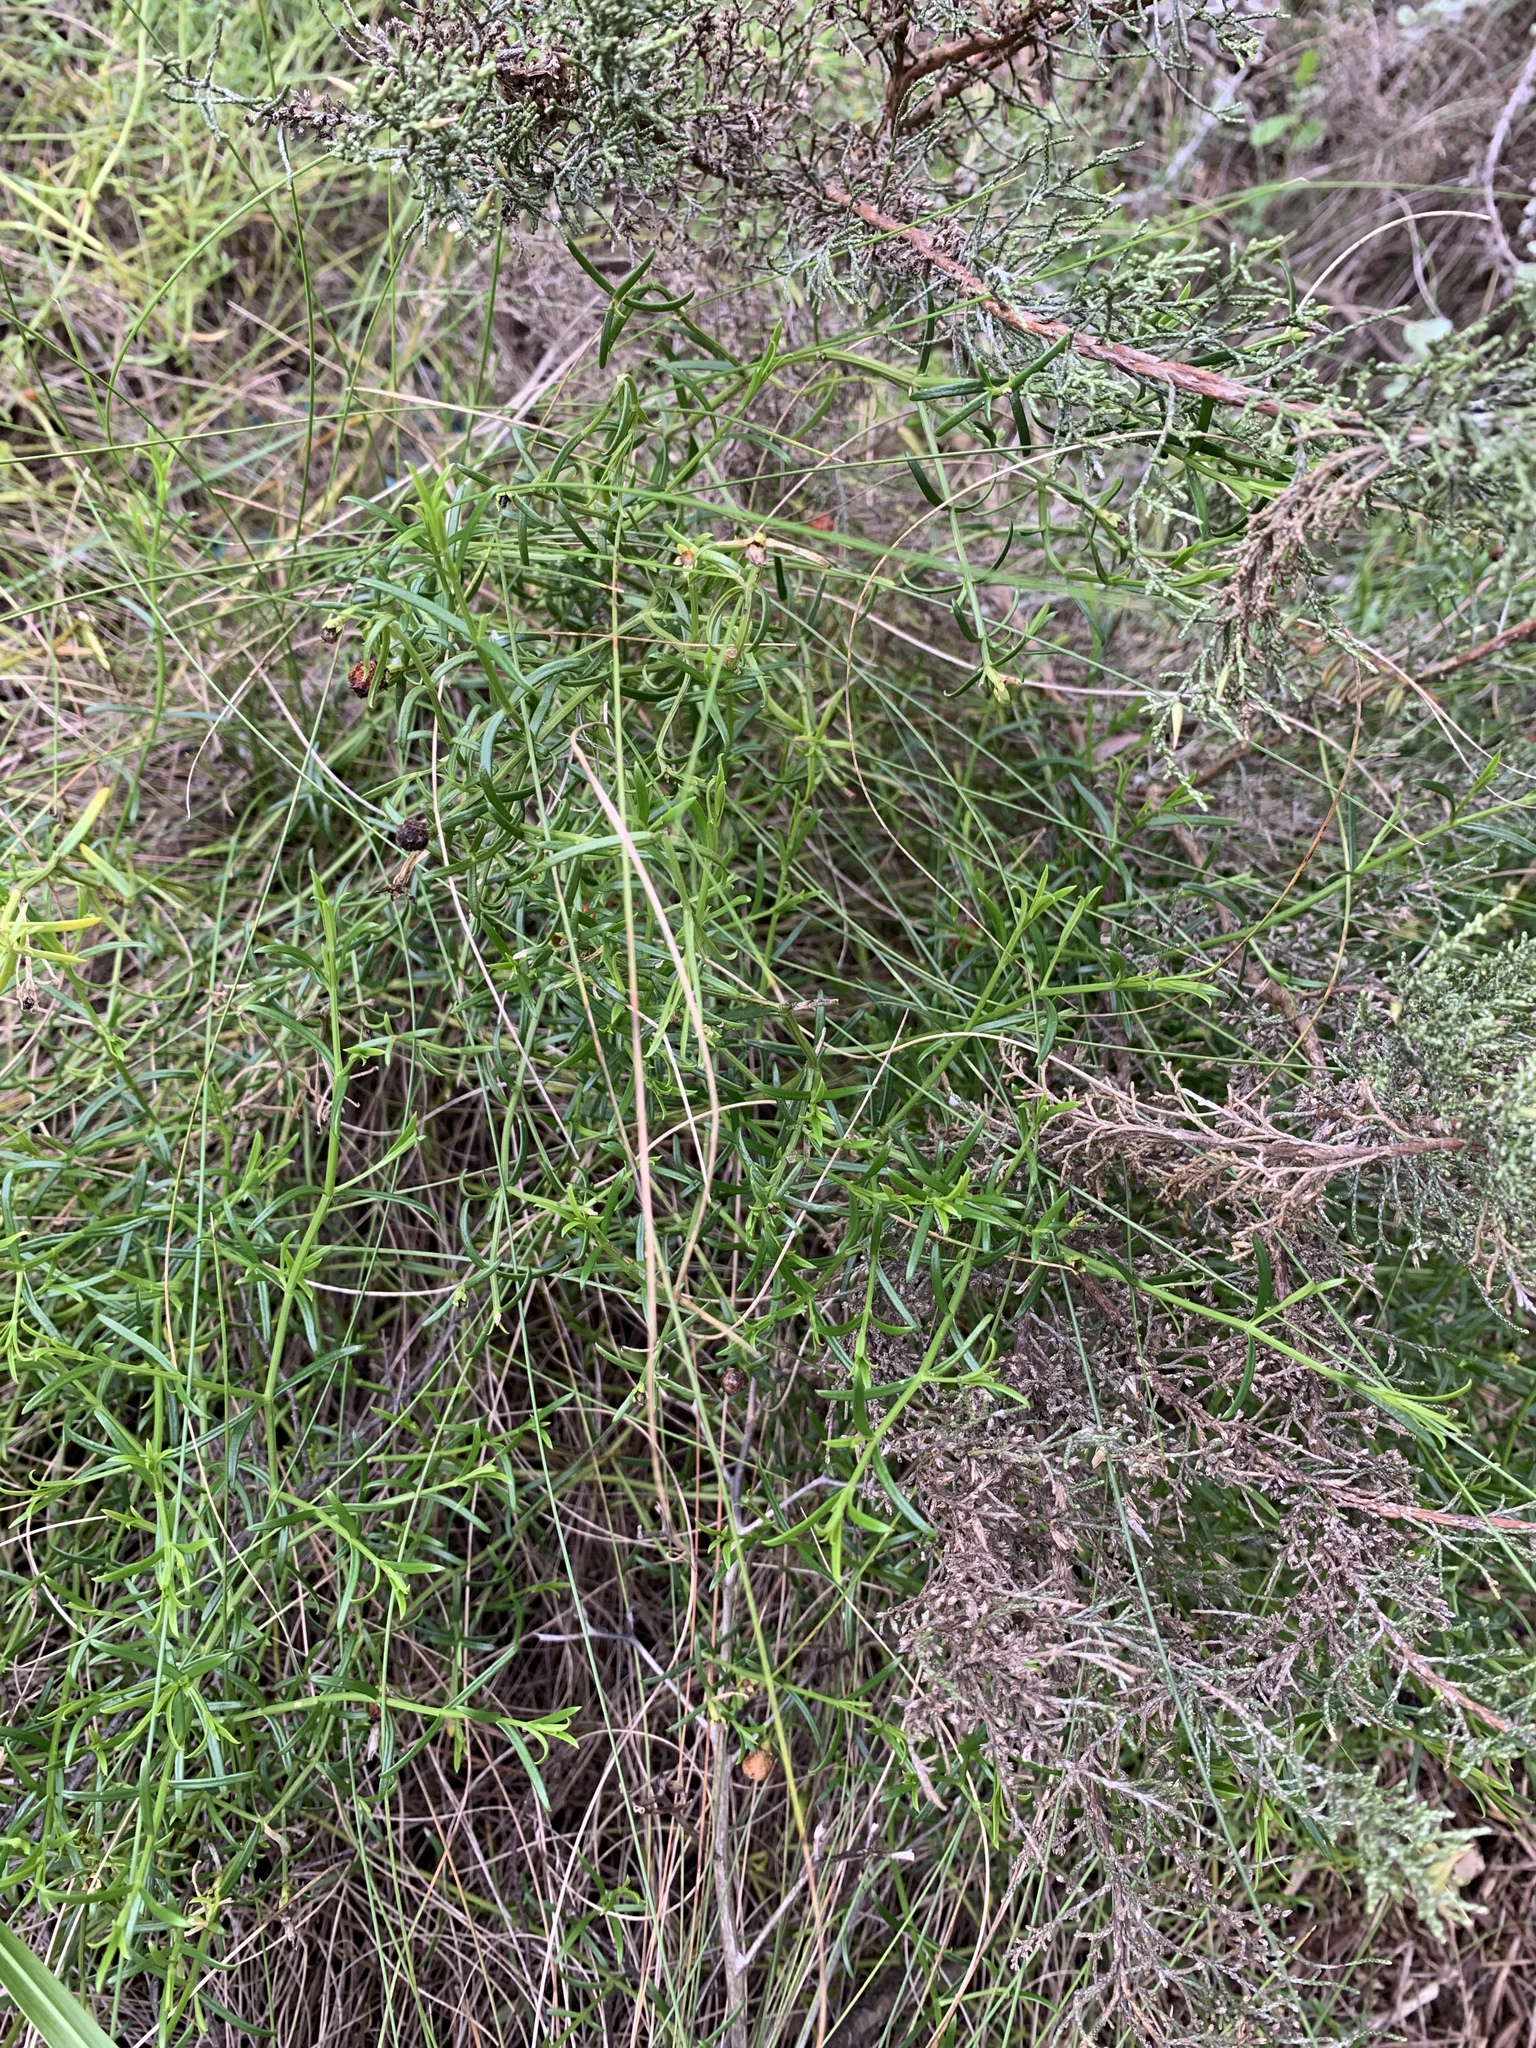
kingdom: Plantae
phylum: Tracheophyta
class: Magnoliopsida
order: Gentianales
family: Gentianaceae
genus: Chironia
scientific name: Chironia baccifera
